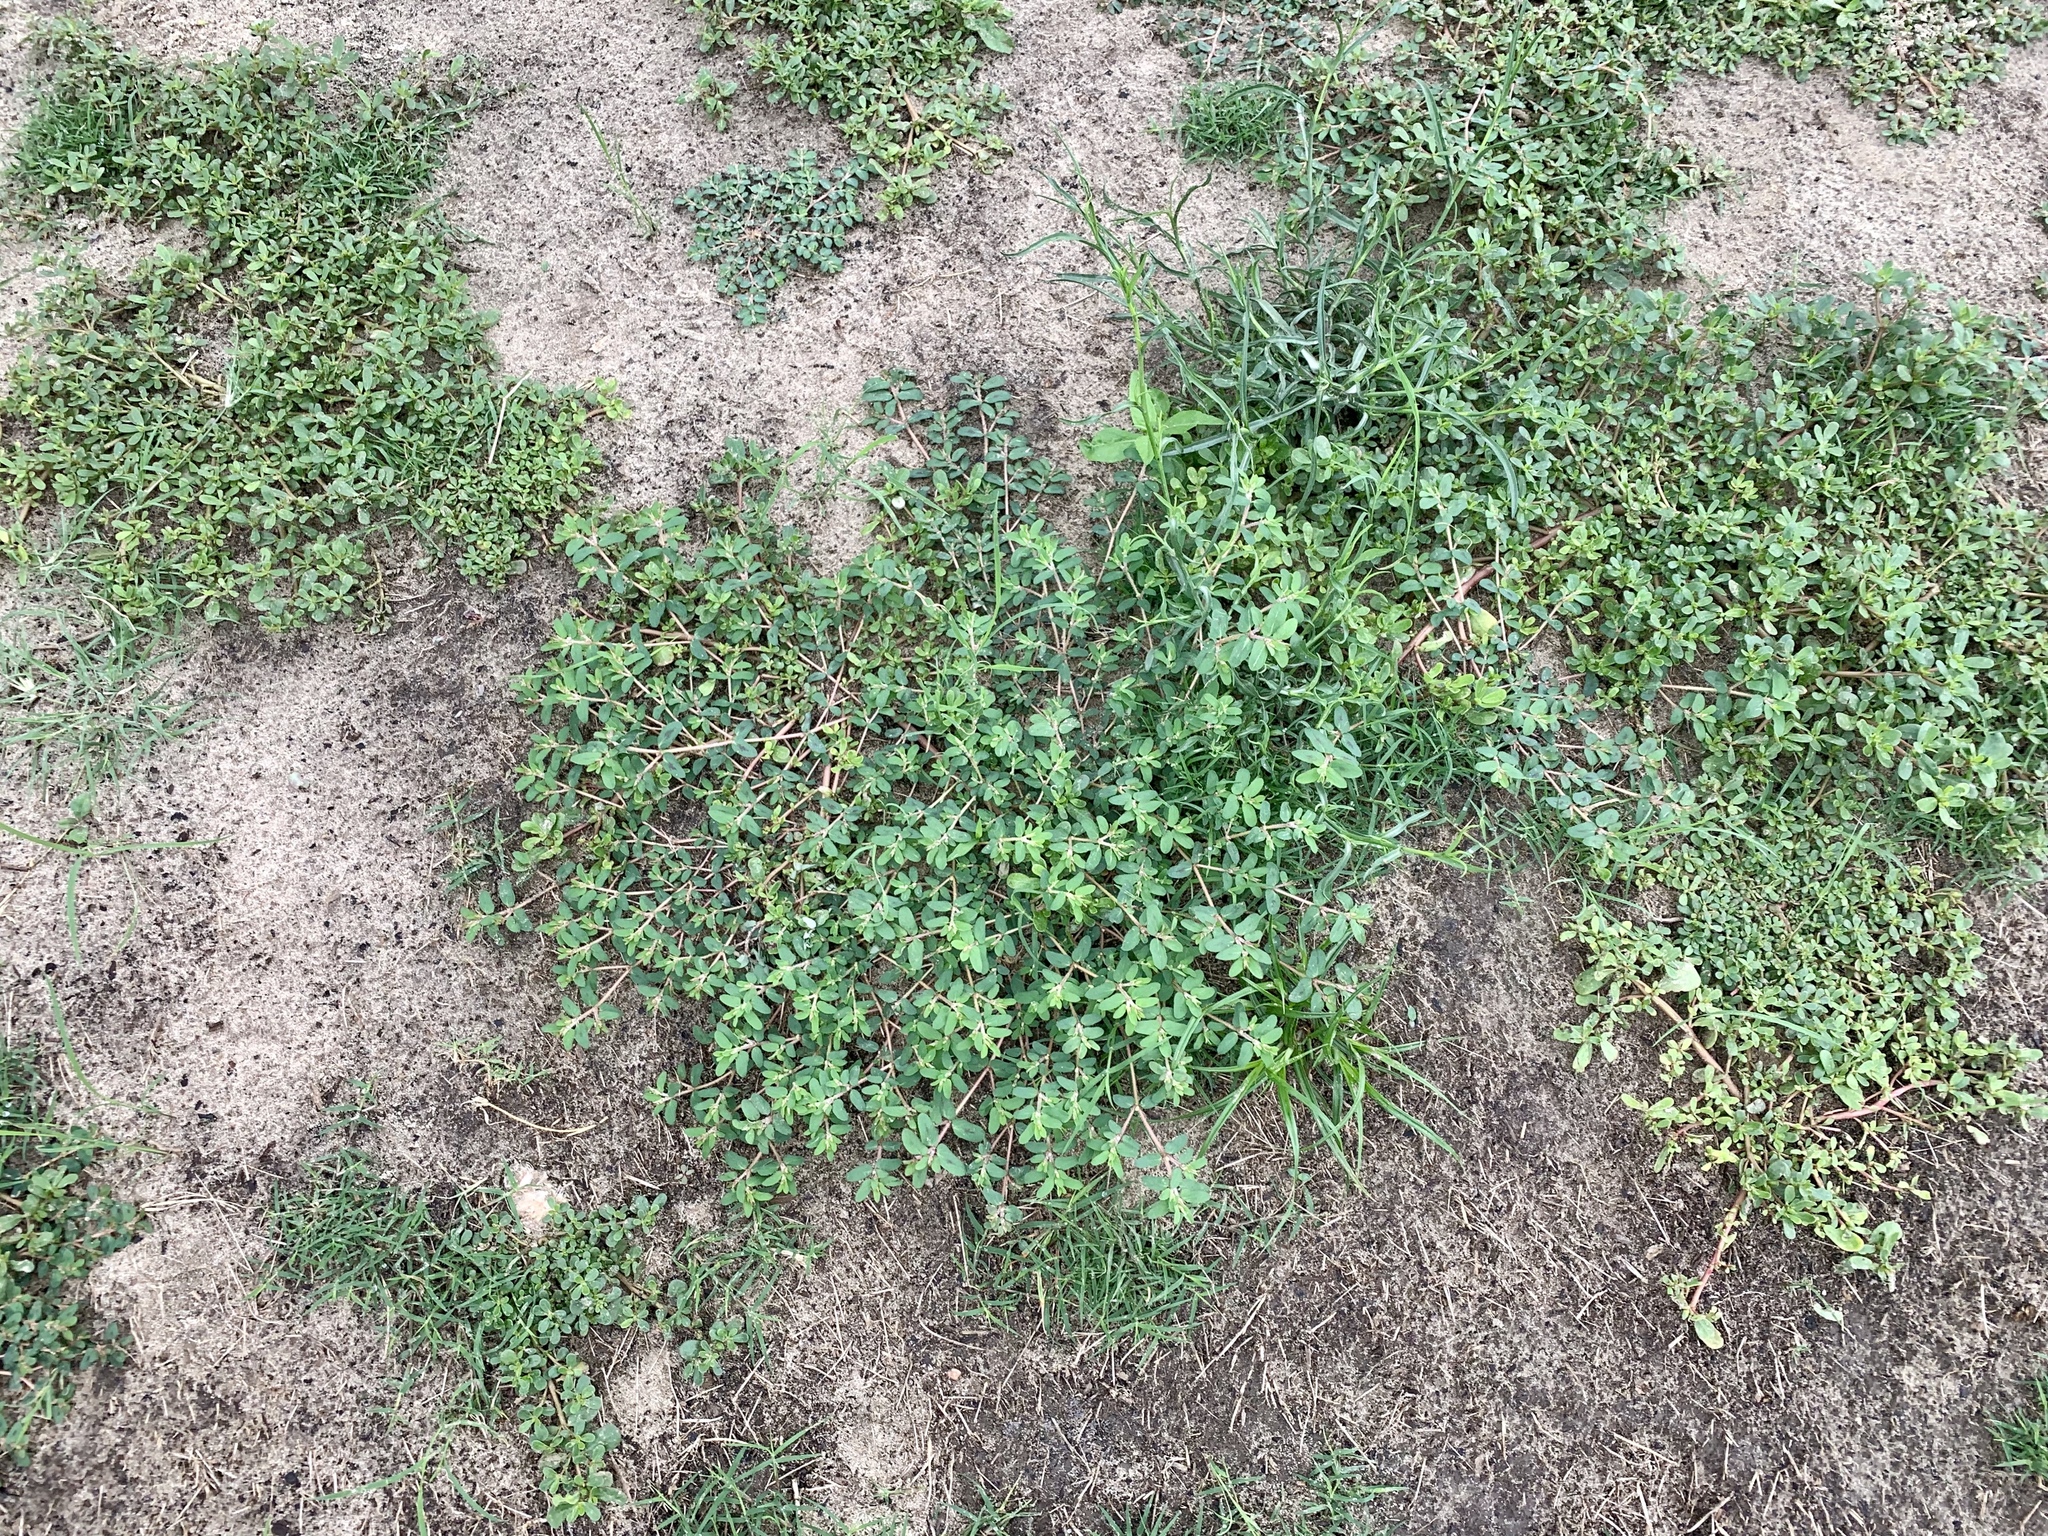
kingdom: Plantae
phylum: Tracheophyta
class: Magnoliopsida
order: Malpighiales
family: Euphorbiaceae
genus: Euphorbia
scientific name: Euphorbia maculata
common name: Spotted spurge
